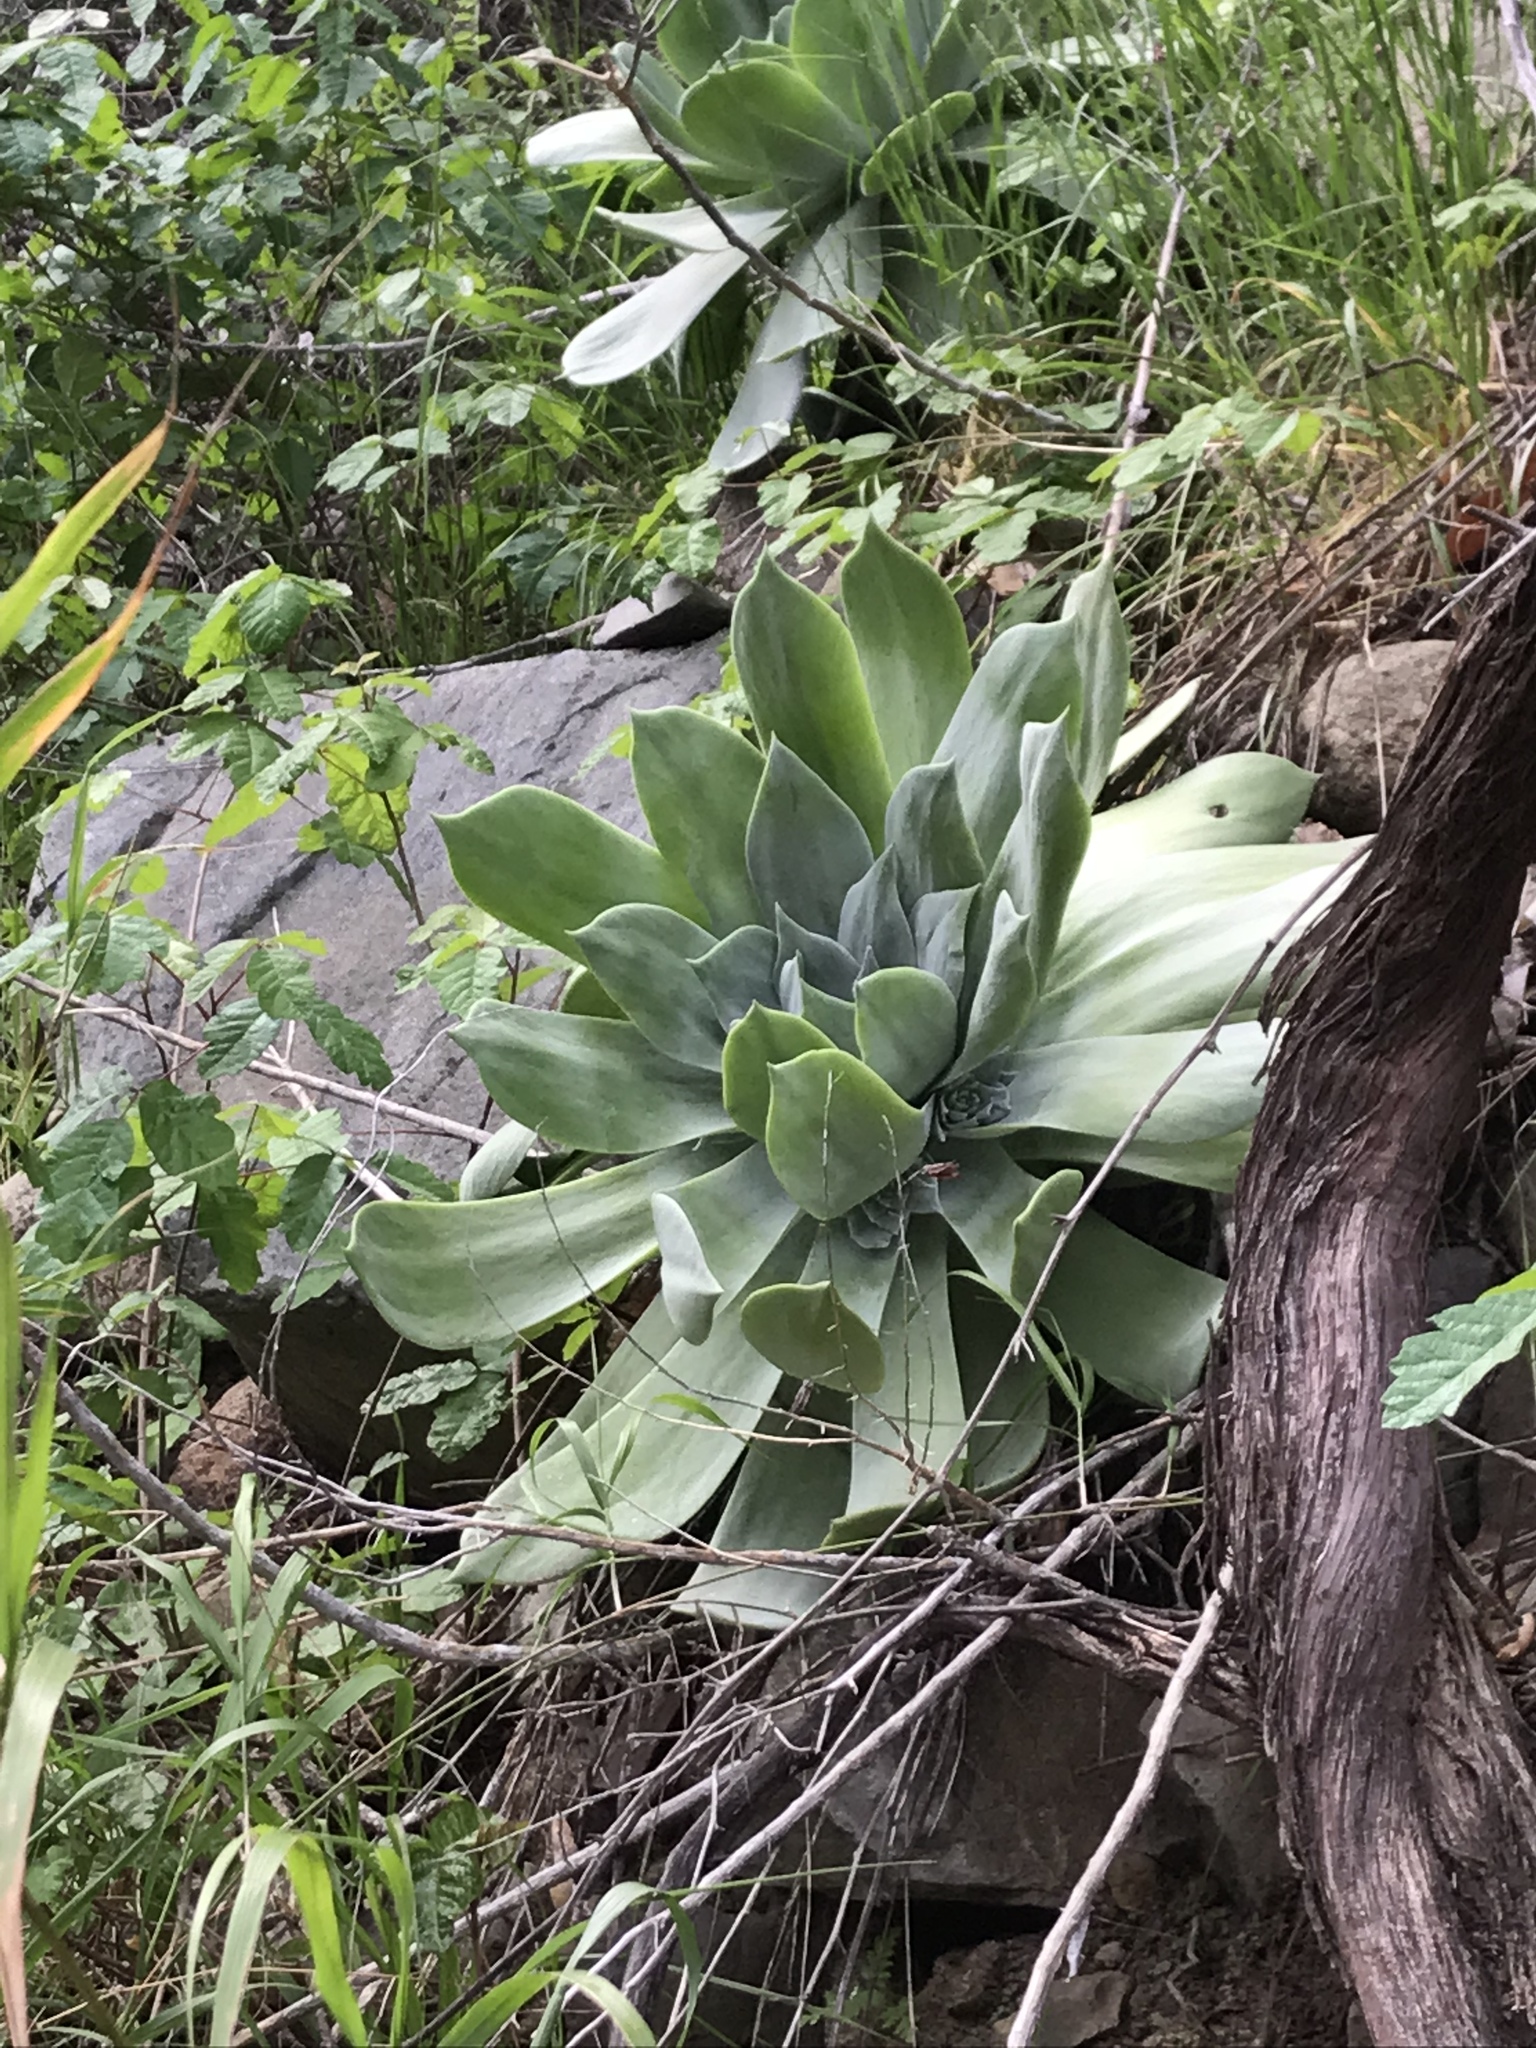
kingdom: Plantae
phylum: Tracheophyta
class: Magnoliopsida
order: Saxifragales
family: Crassulaceae
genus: Dudleya
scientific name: Dudleya pulverulenta
